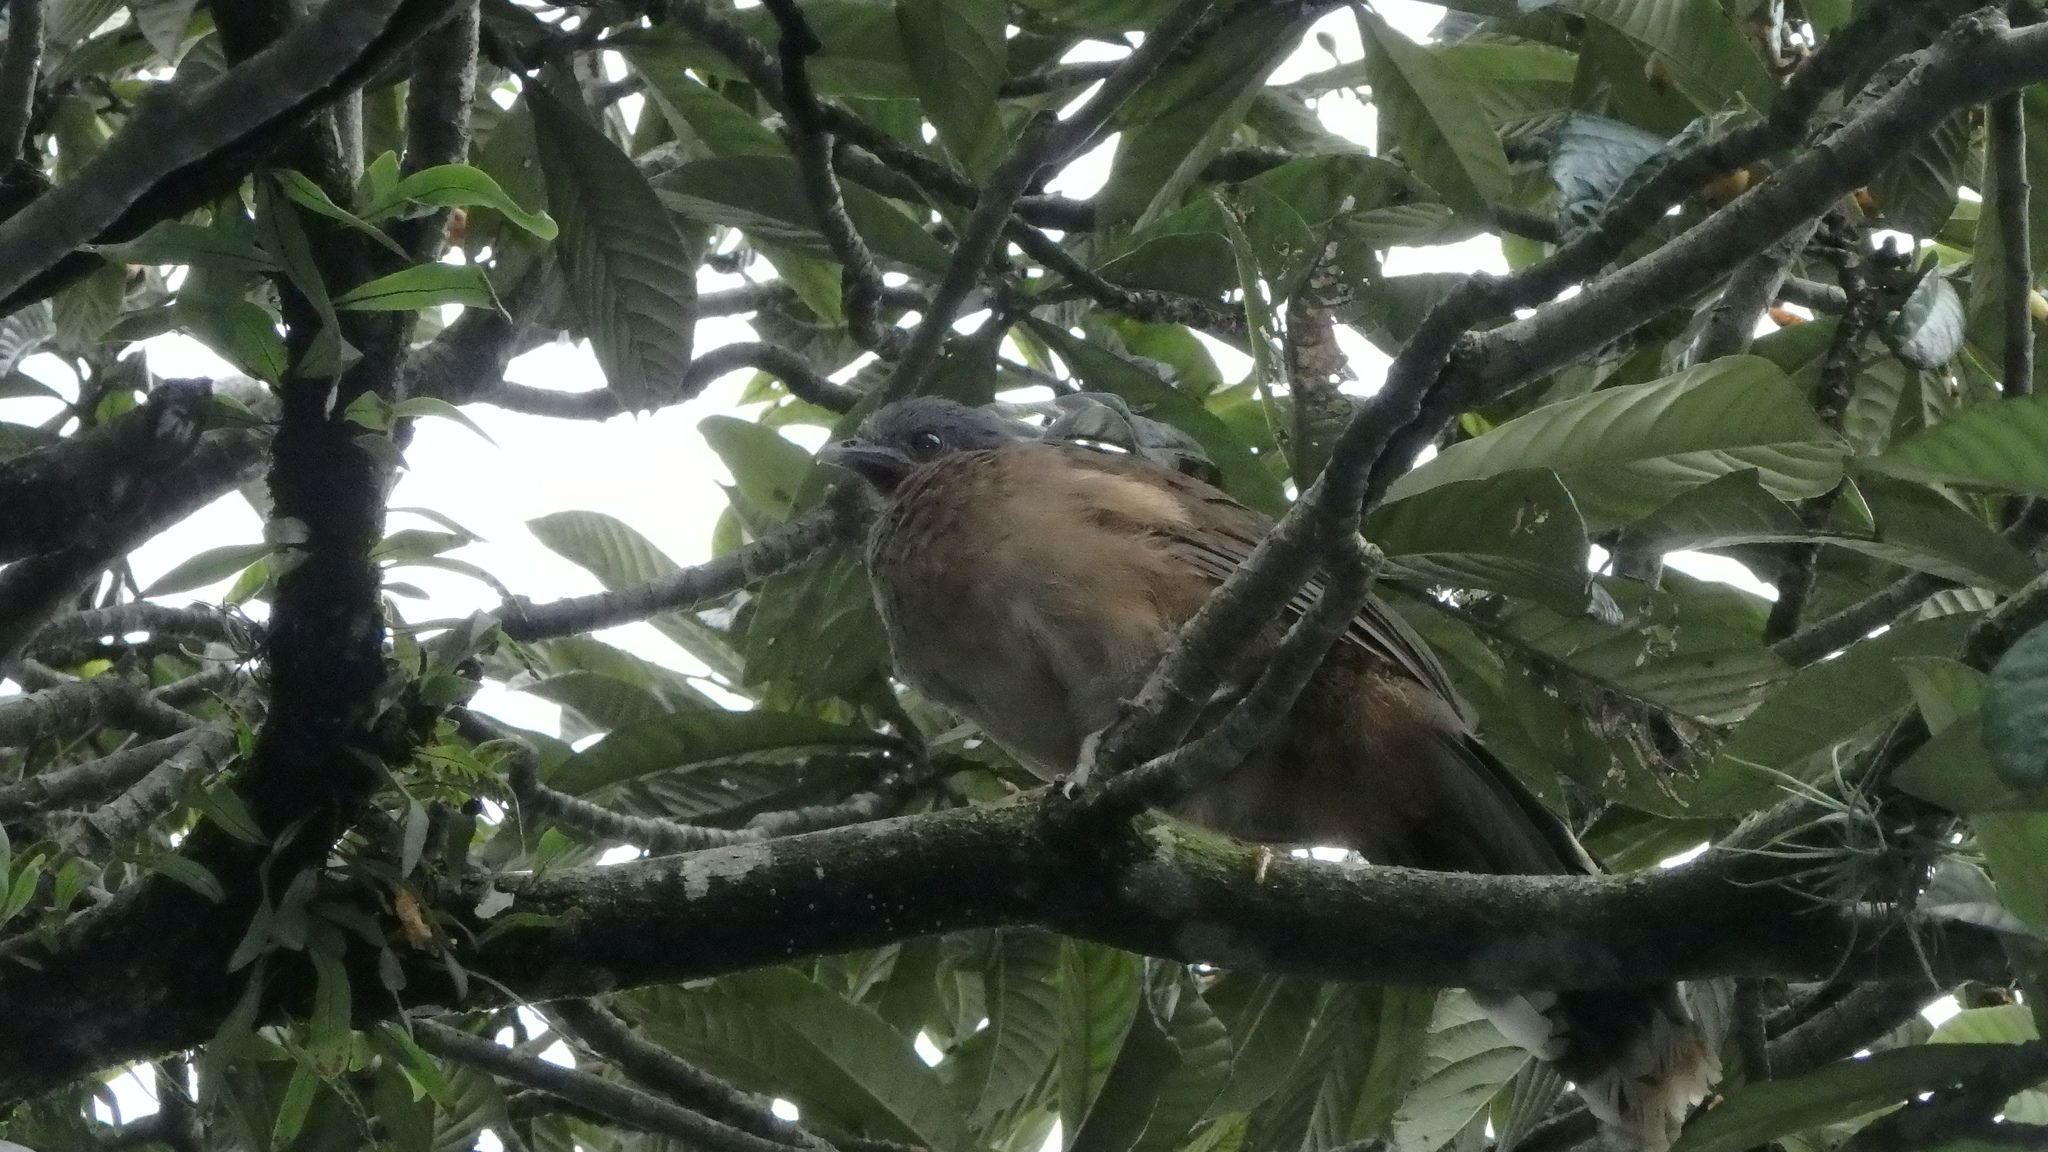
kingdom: Animalia
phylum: Chordata
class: Aves
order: Galliformes
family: Cracidae
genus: Ortalis
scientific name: Ortalis vetula
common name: Plain chachalaca
